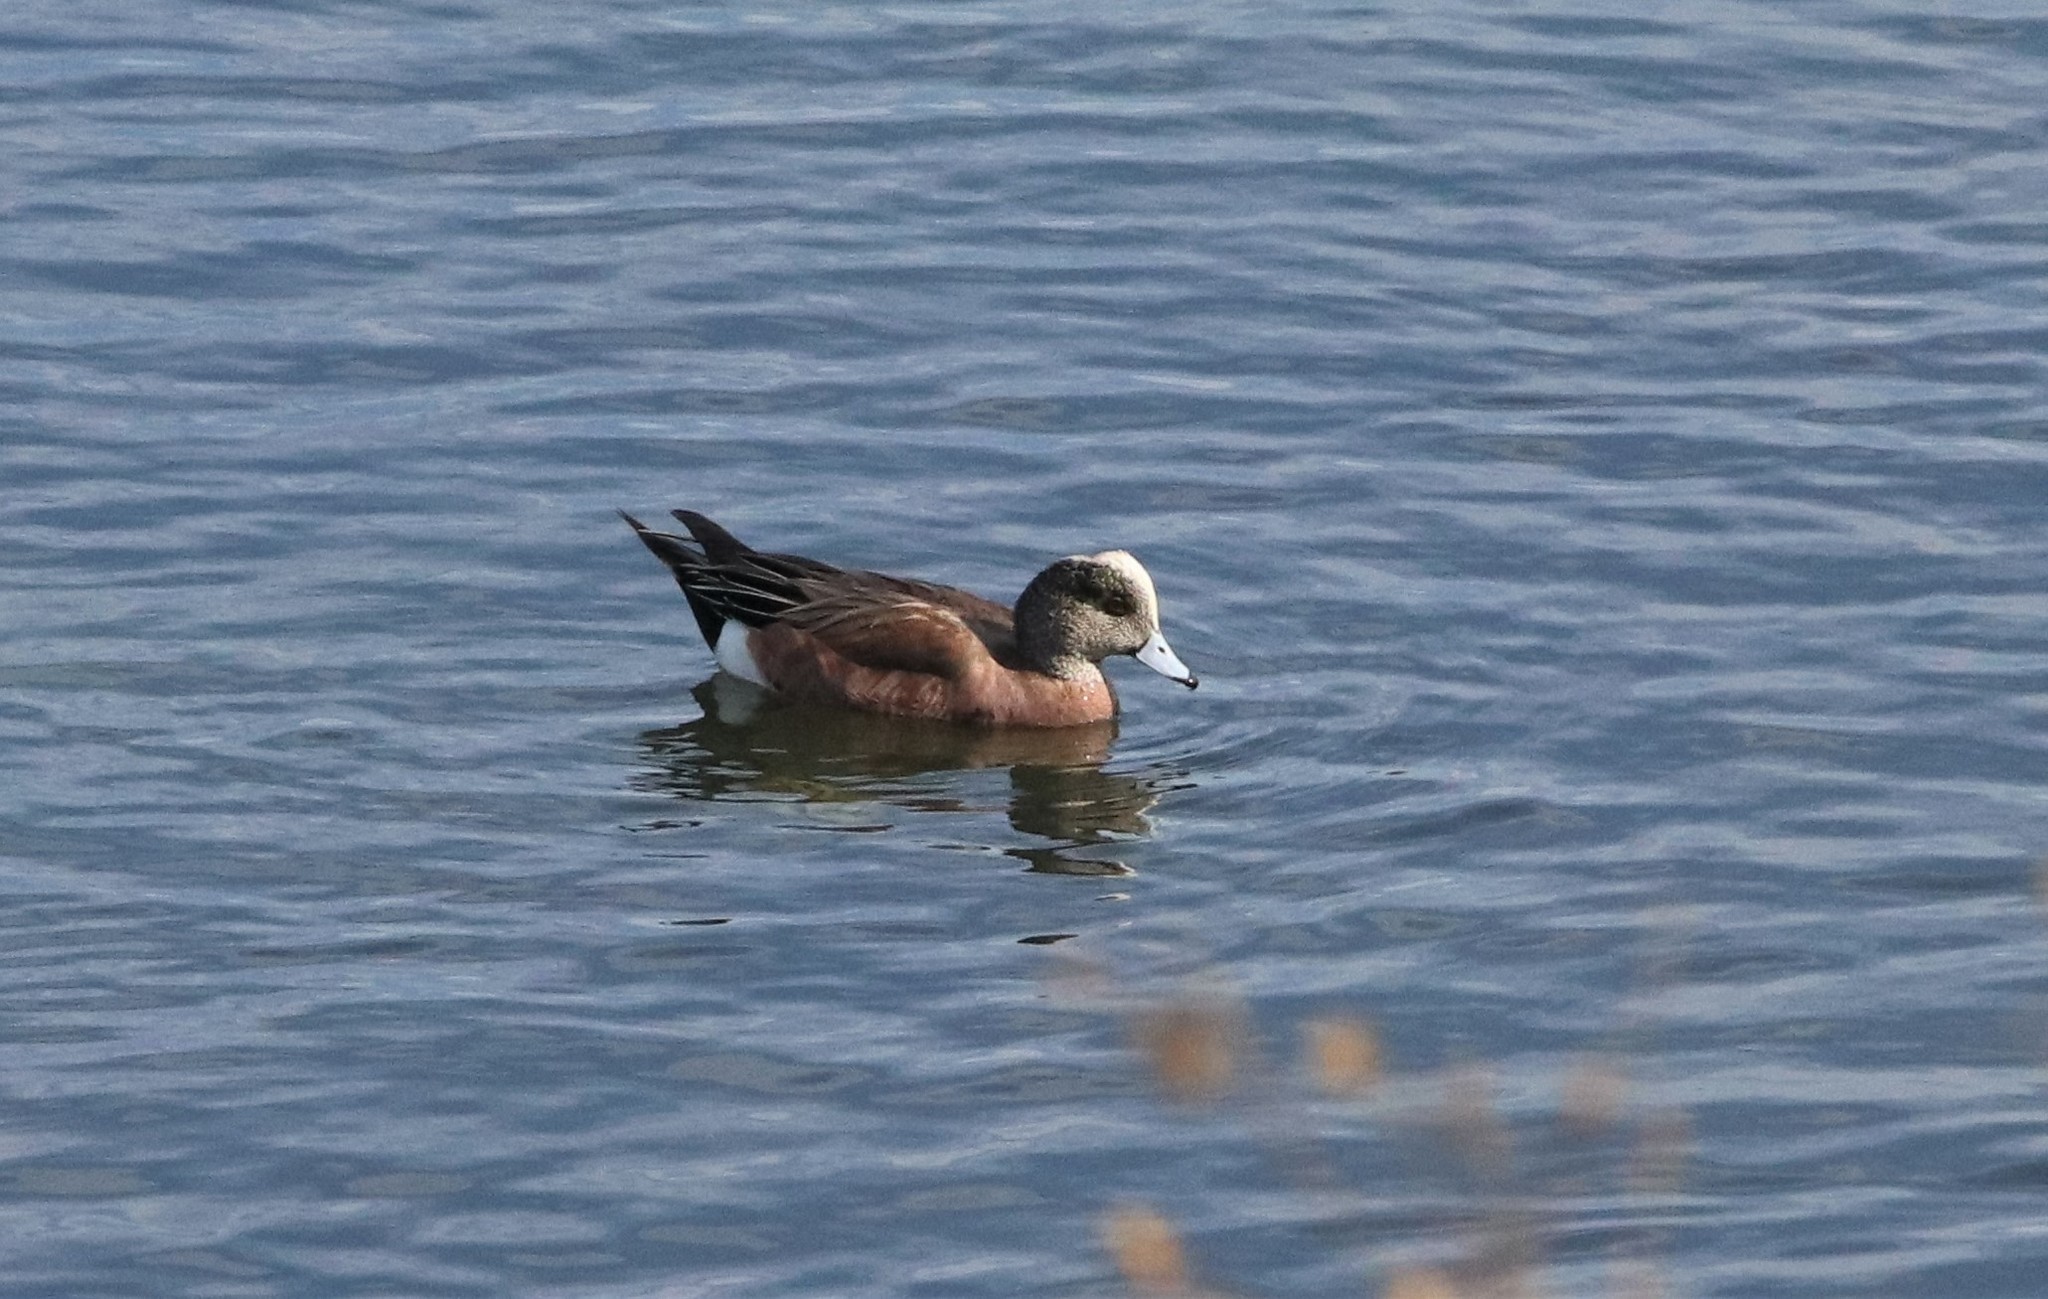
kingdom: Animalia
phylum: Chordata
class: Aves
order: Anseriformes
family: Anatidae
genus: Mareca
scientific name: Mareca americana
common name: American wigeon
